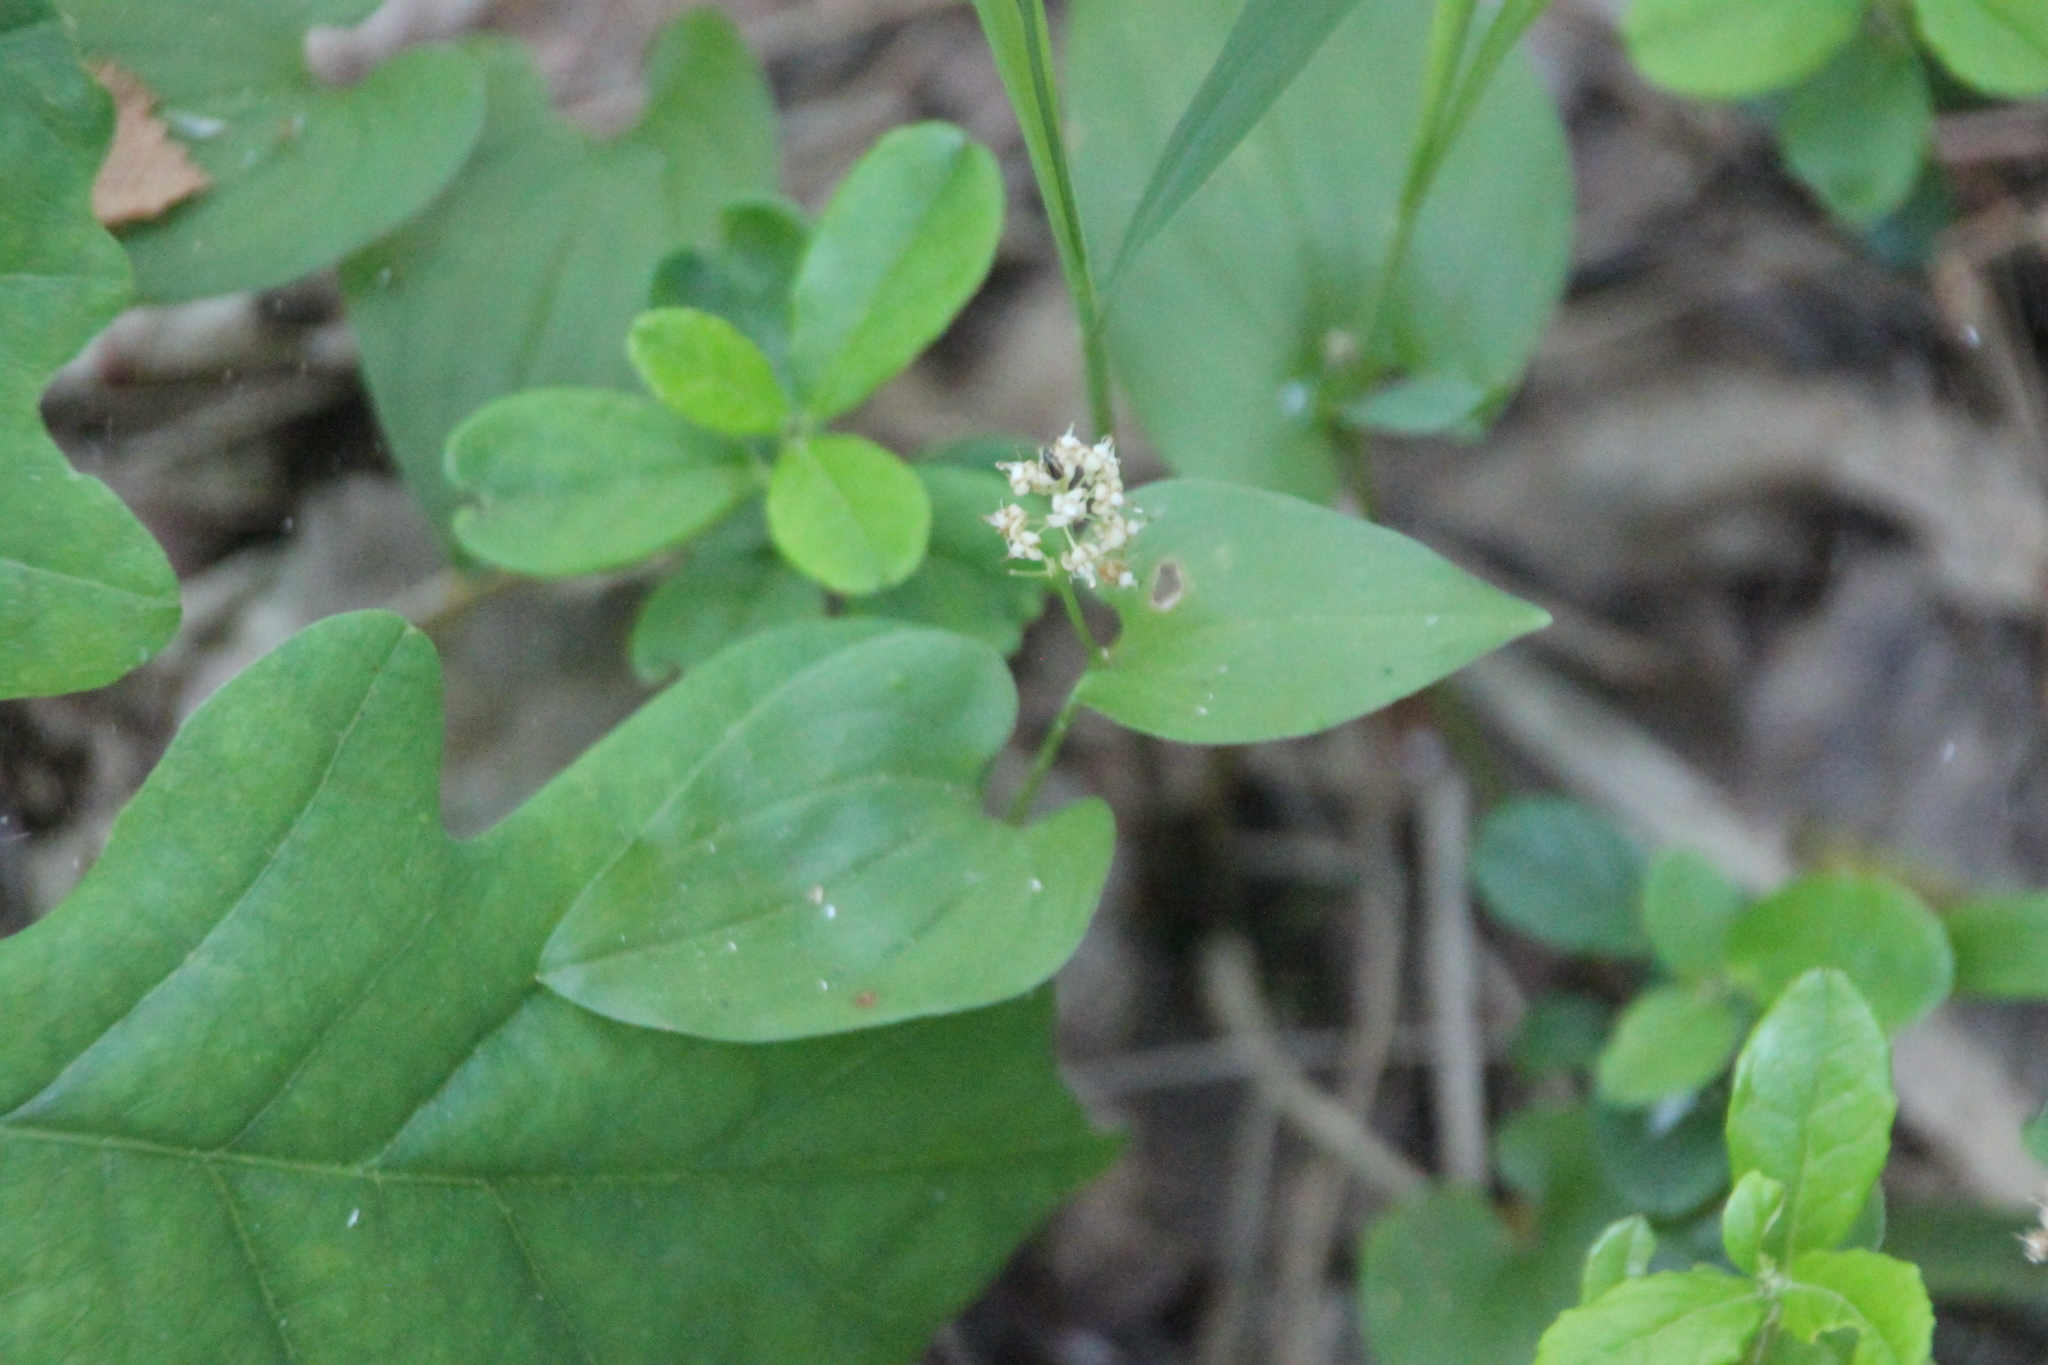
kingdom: Plantae
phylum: Tracheophyta
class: Liliopsida
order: Asparagales
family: Asparagaceae
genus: Maianthemum
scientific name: Maianthemum bifolium
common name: May lily
